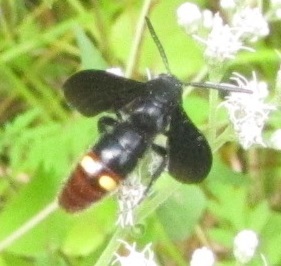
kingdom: Animalia
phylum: Arthropoda
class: Insecta
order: Hymenoptera
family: Scoliidae
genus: Scolia
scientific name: Scolia dubia
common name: Blue-winged scoliid wasp
